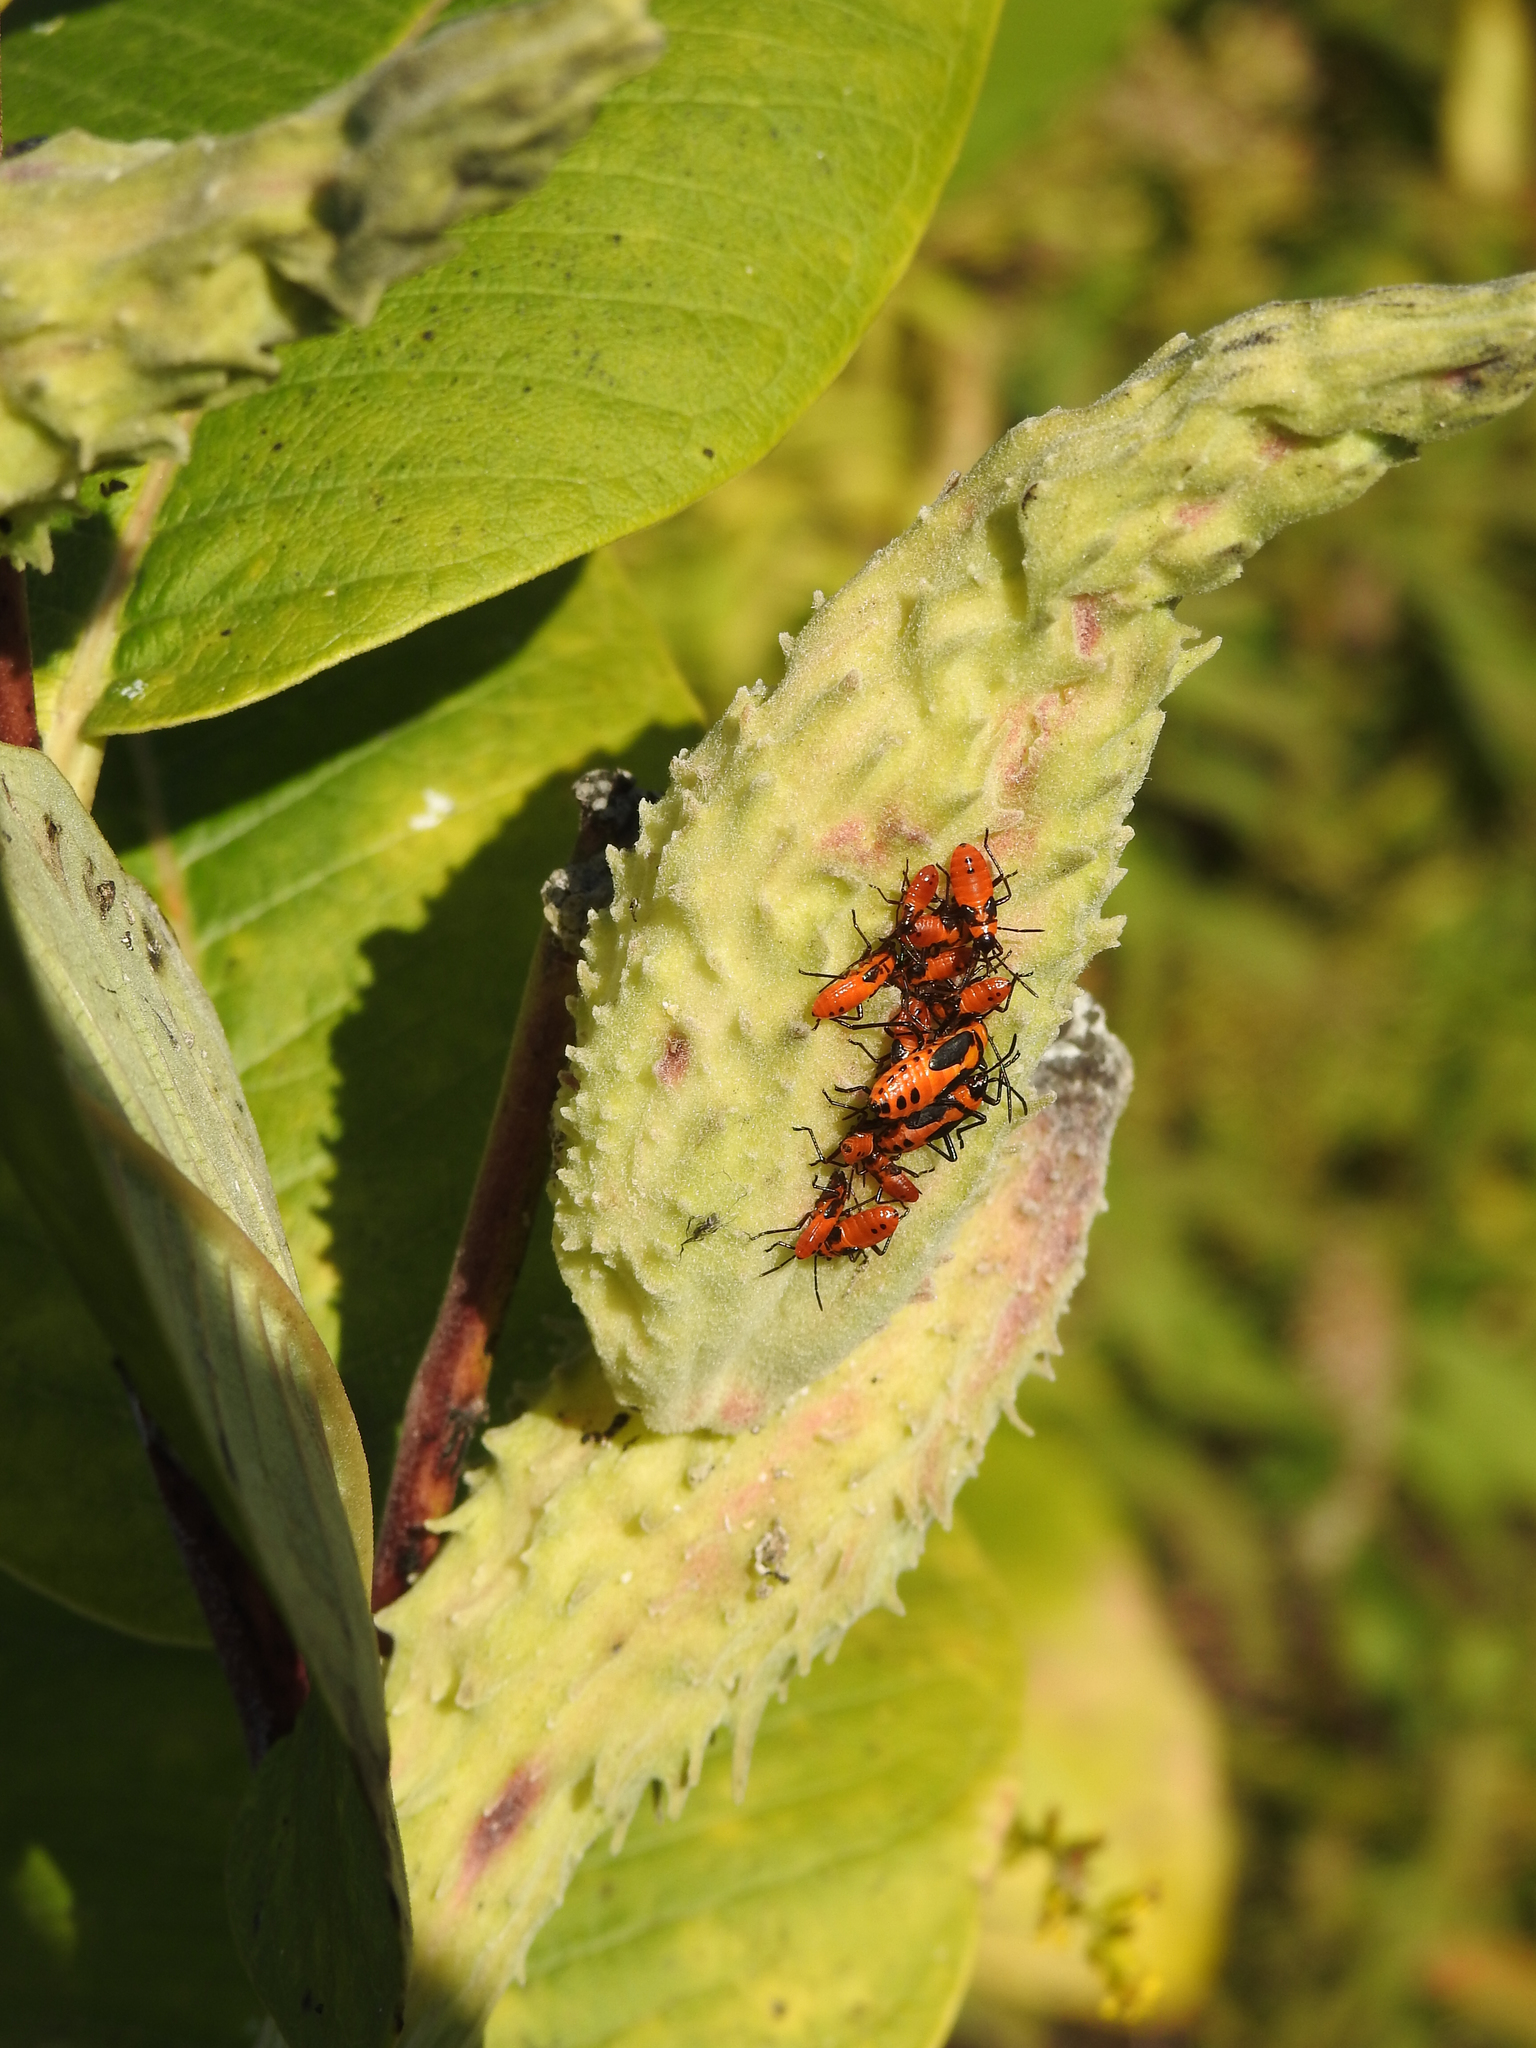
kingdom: Animalia
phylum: Arthropoda
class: Insecta
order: Hemiptera
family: Lygaeidae
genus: Oncopeltus
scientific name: Oncopeltus fasciatus
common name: Large milkweed bug
